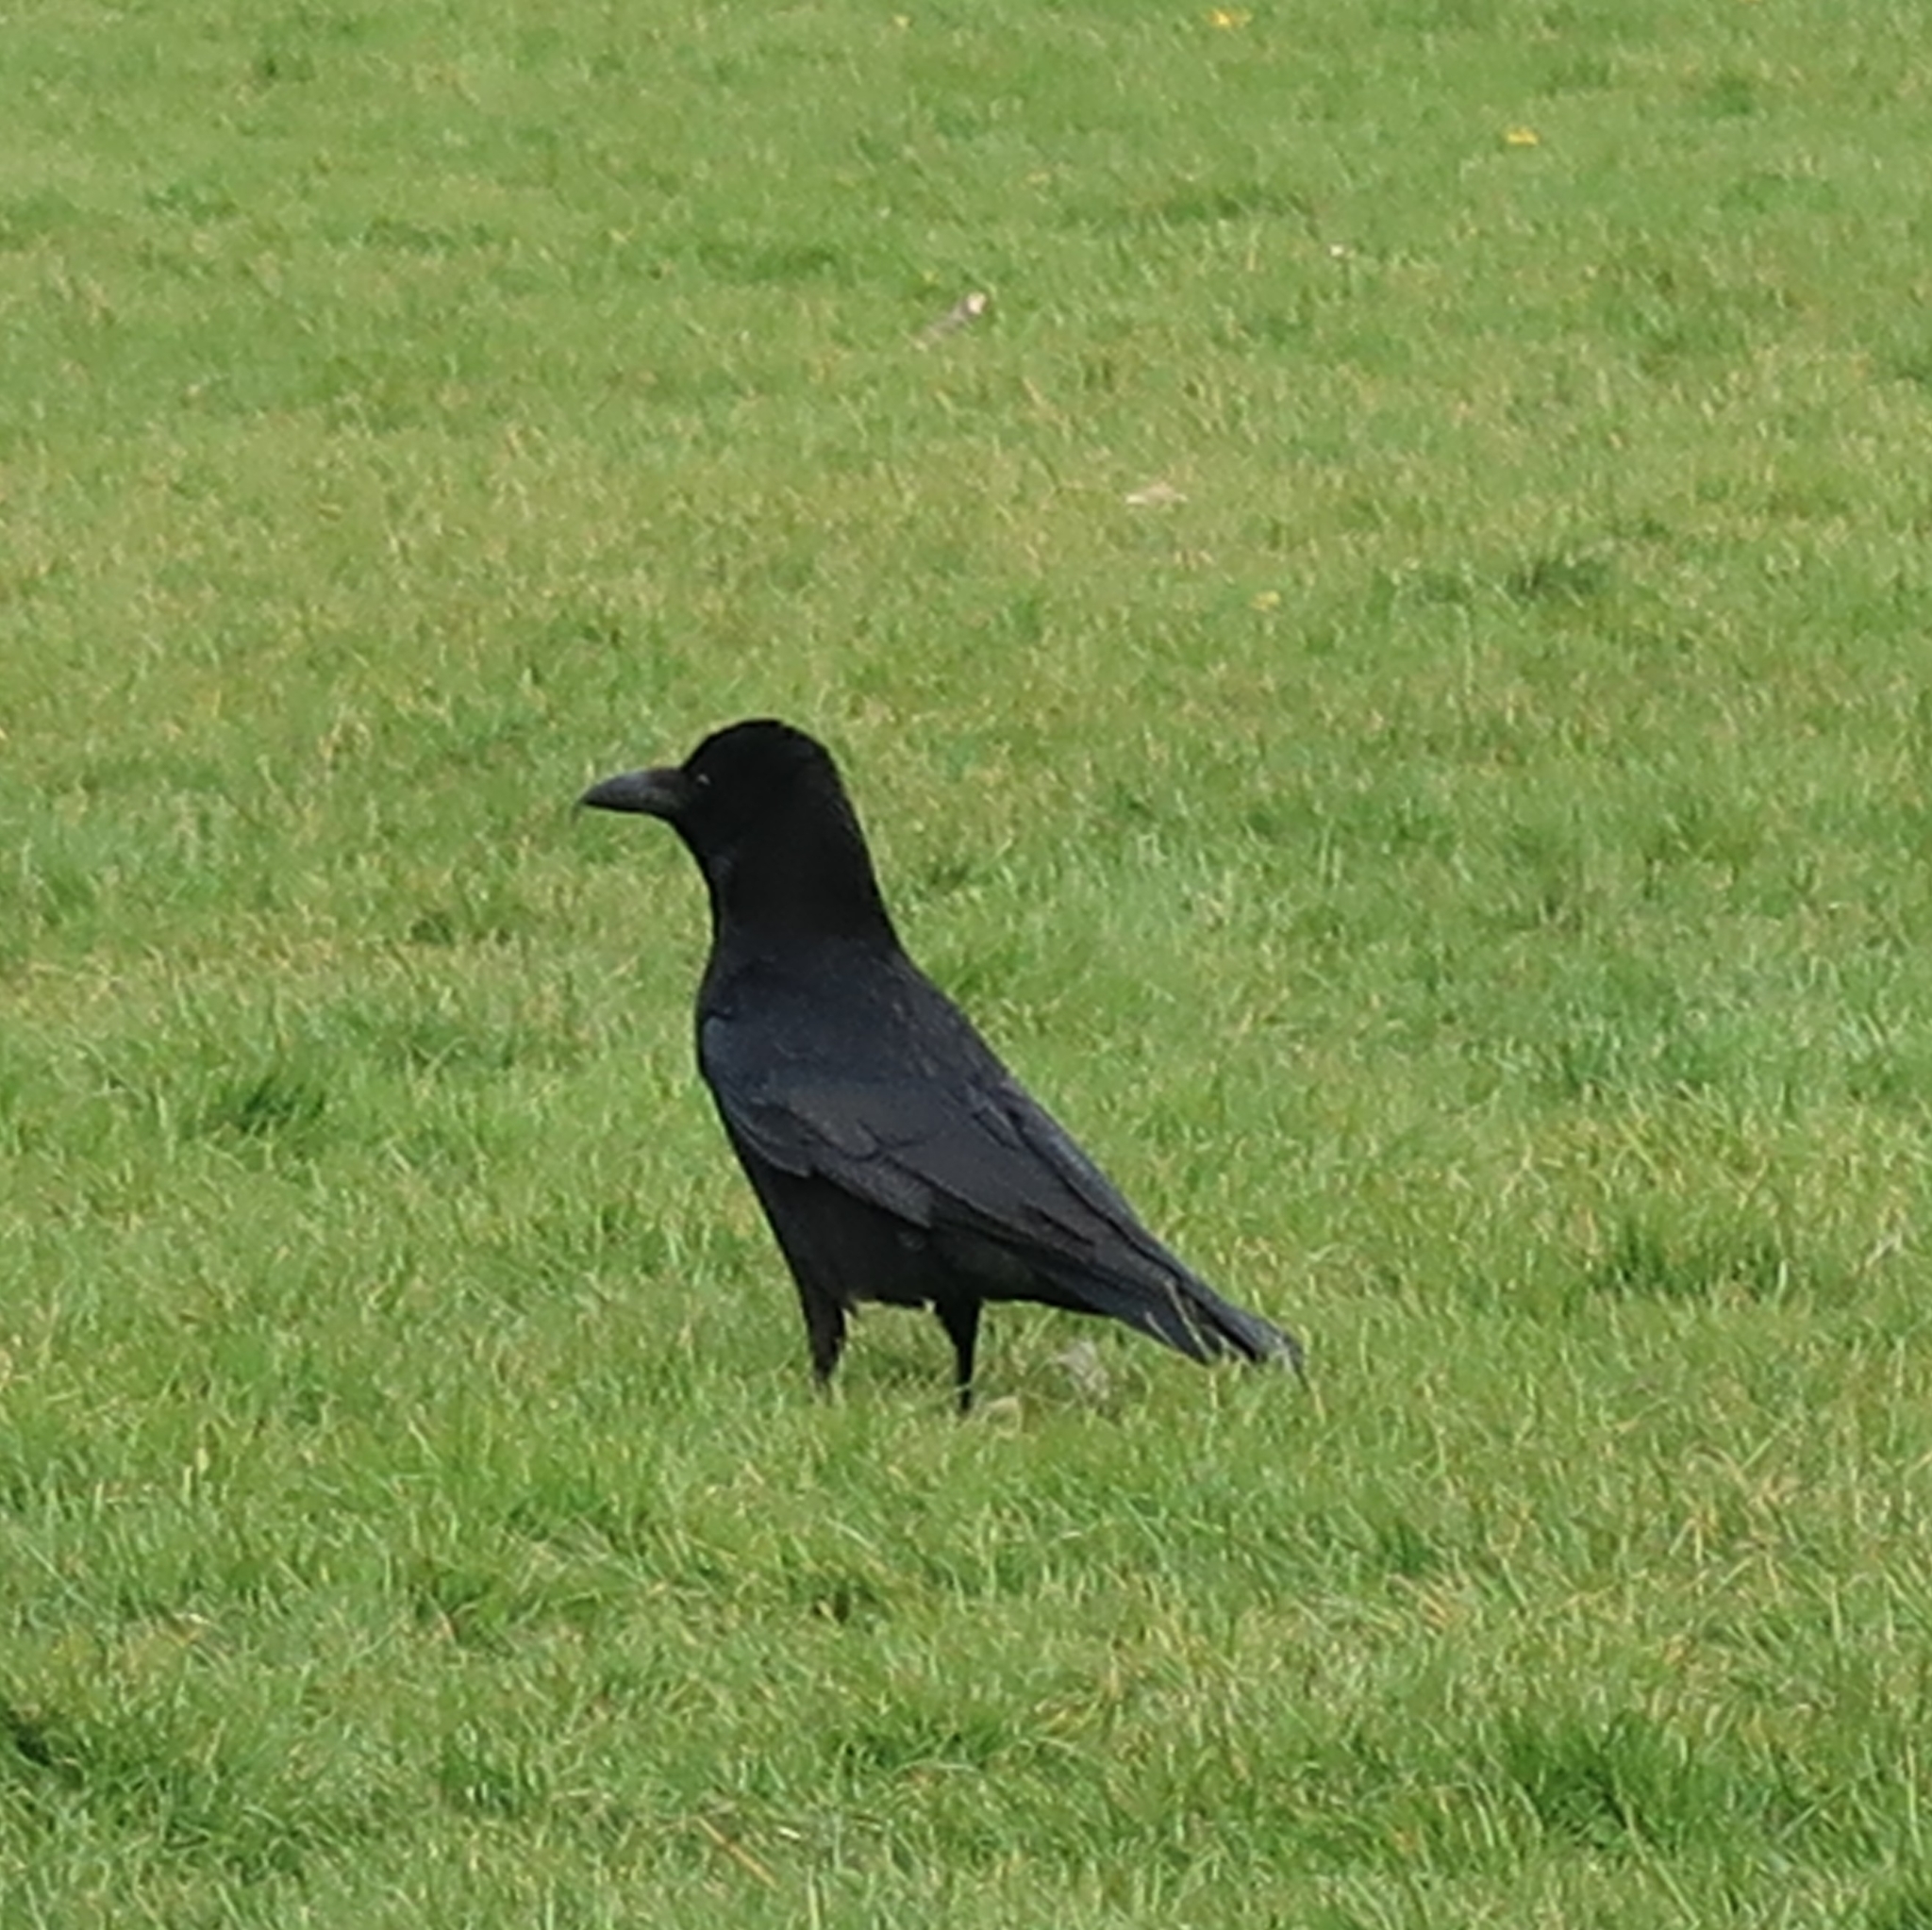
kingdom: Animalia
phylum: Chordata
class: Aves
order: Passeriformes
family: Corvidae
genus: Corvus
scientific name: Corvus corone
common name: Carrion crow
